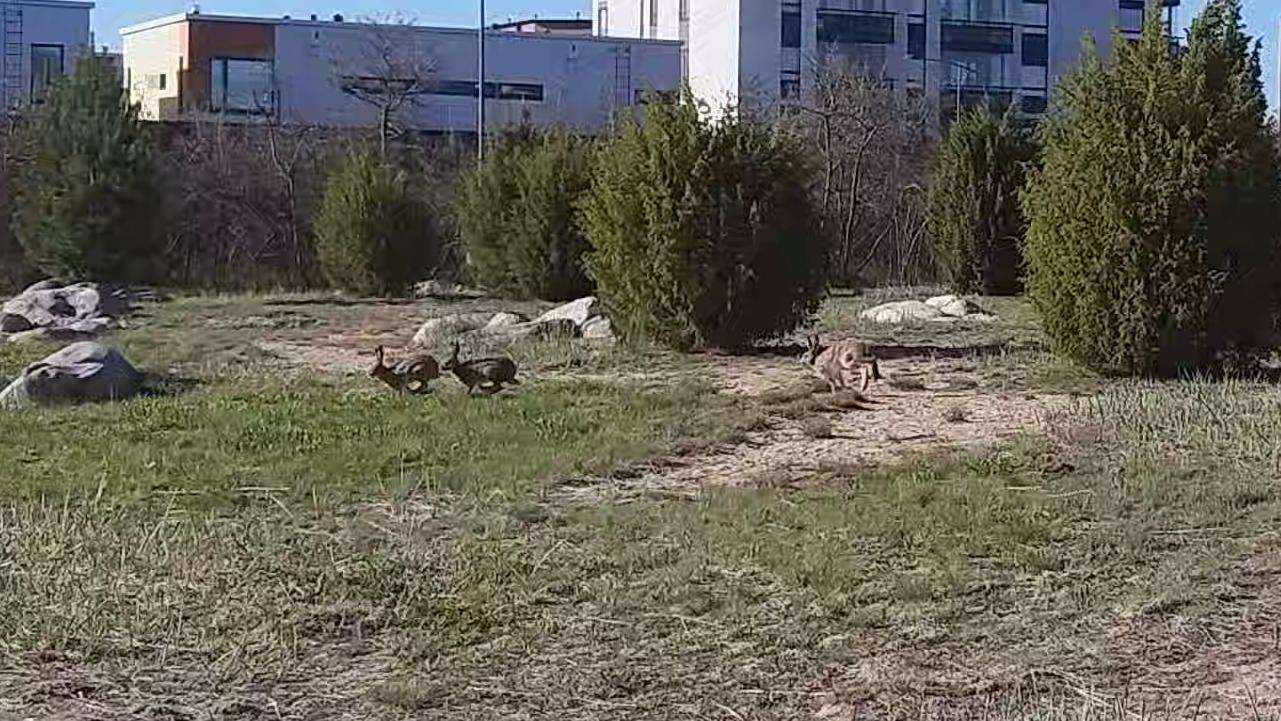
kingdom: Animalia
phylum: Chordata
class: Mammalia
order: Lagomorpha
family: Leporidae
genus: Lepus
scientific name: Lepus europaeus
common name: European hare
